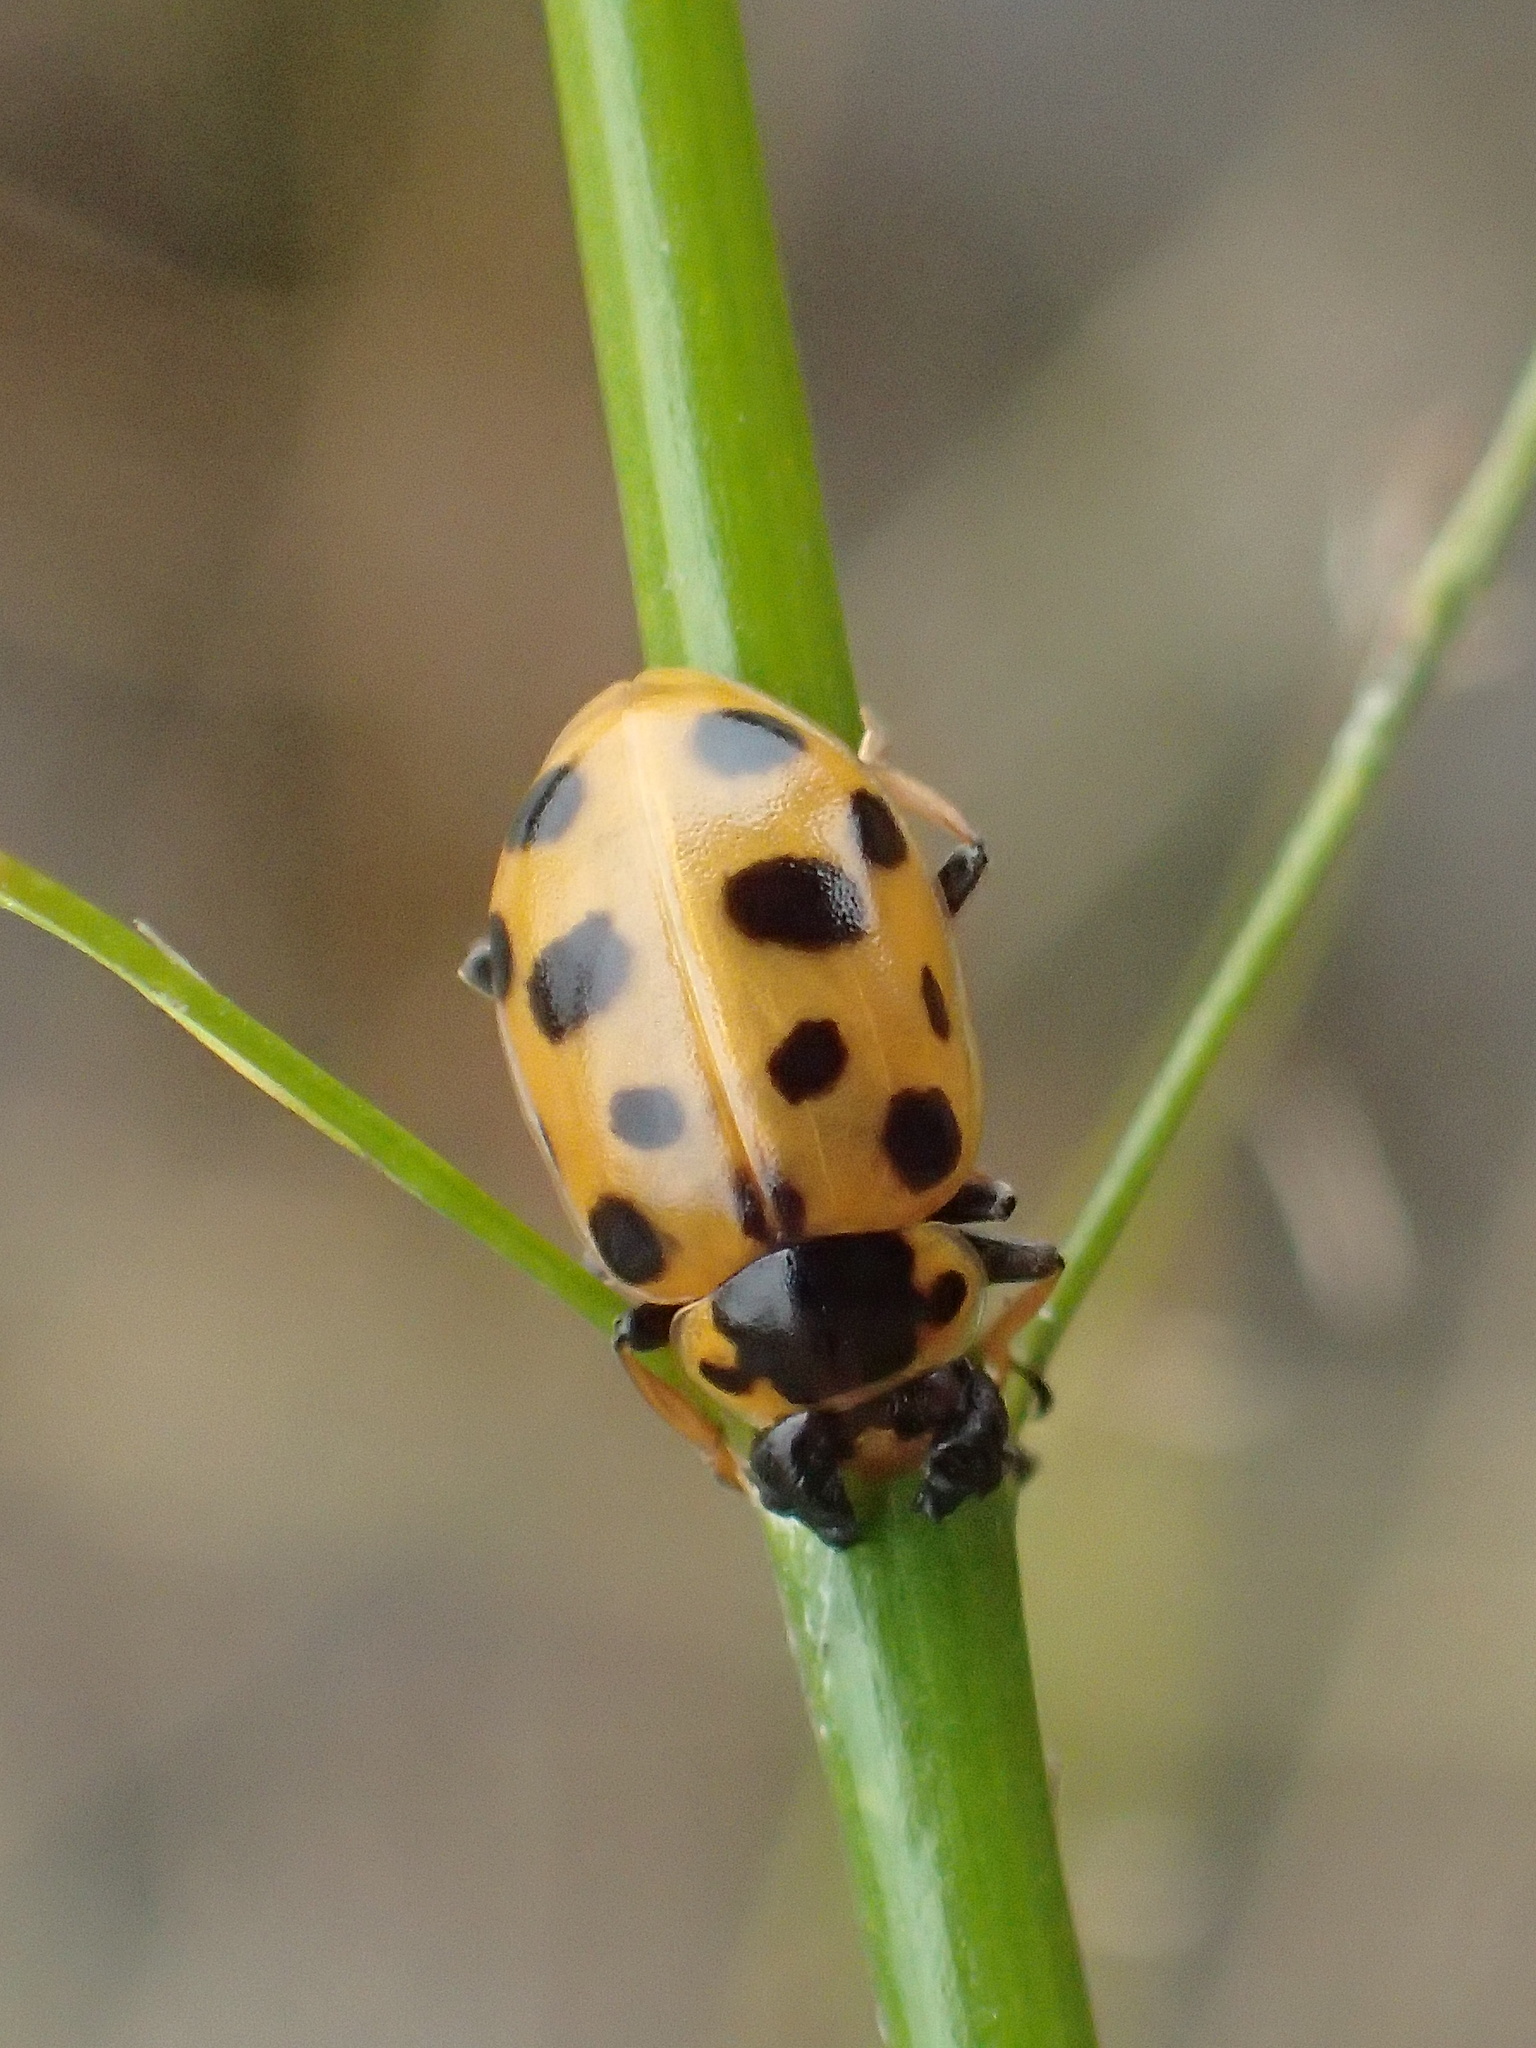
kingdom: Animalia
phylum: Arthropoda
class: Insecta
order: Coleoptera
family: Coccinellidae
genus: Hippodamia
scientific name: Hippodamia tredecimpunctata
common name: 13-spot ladybird
